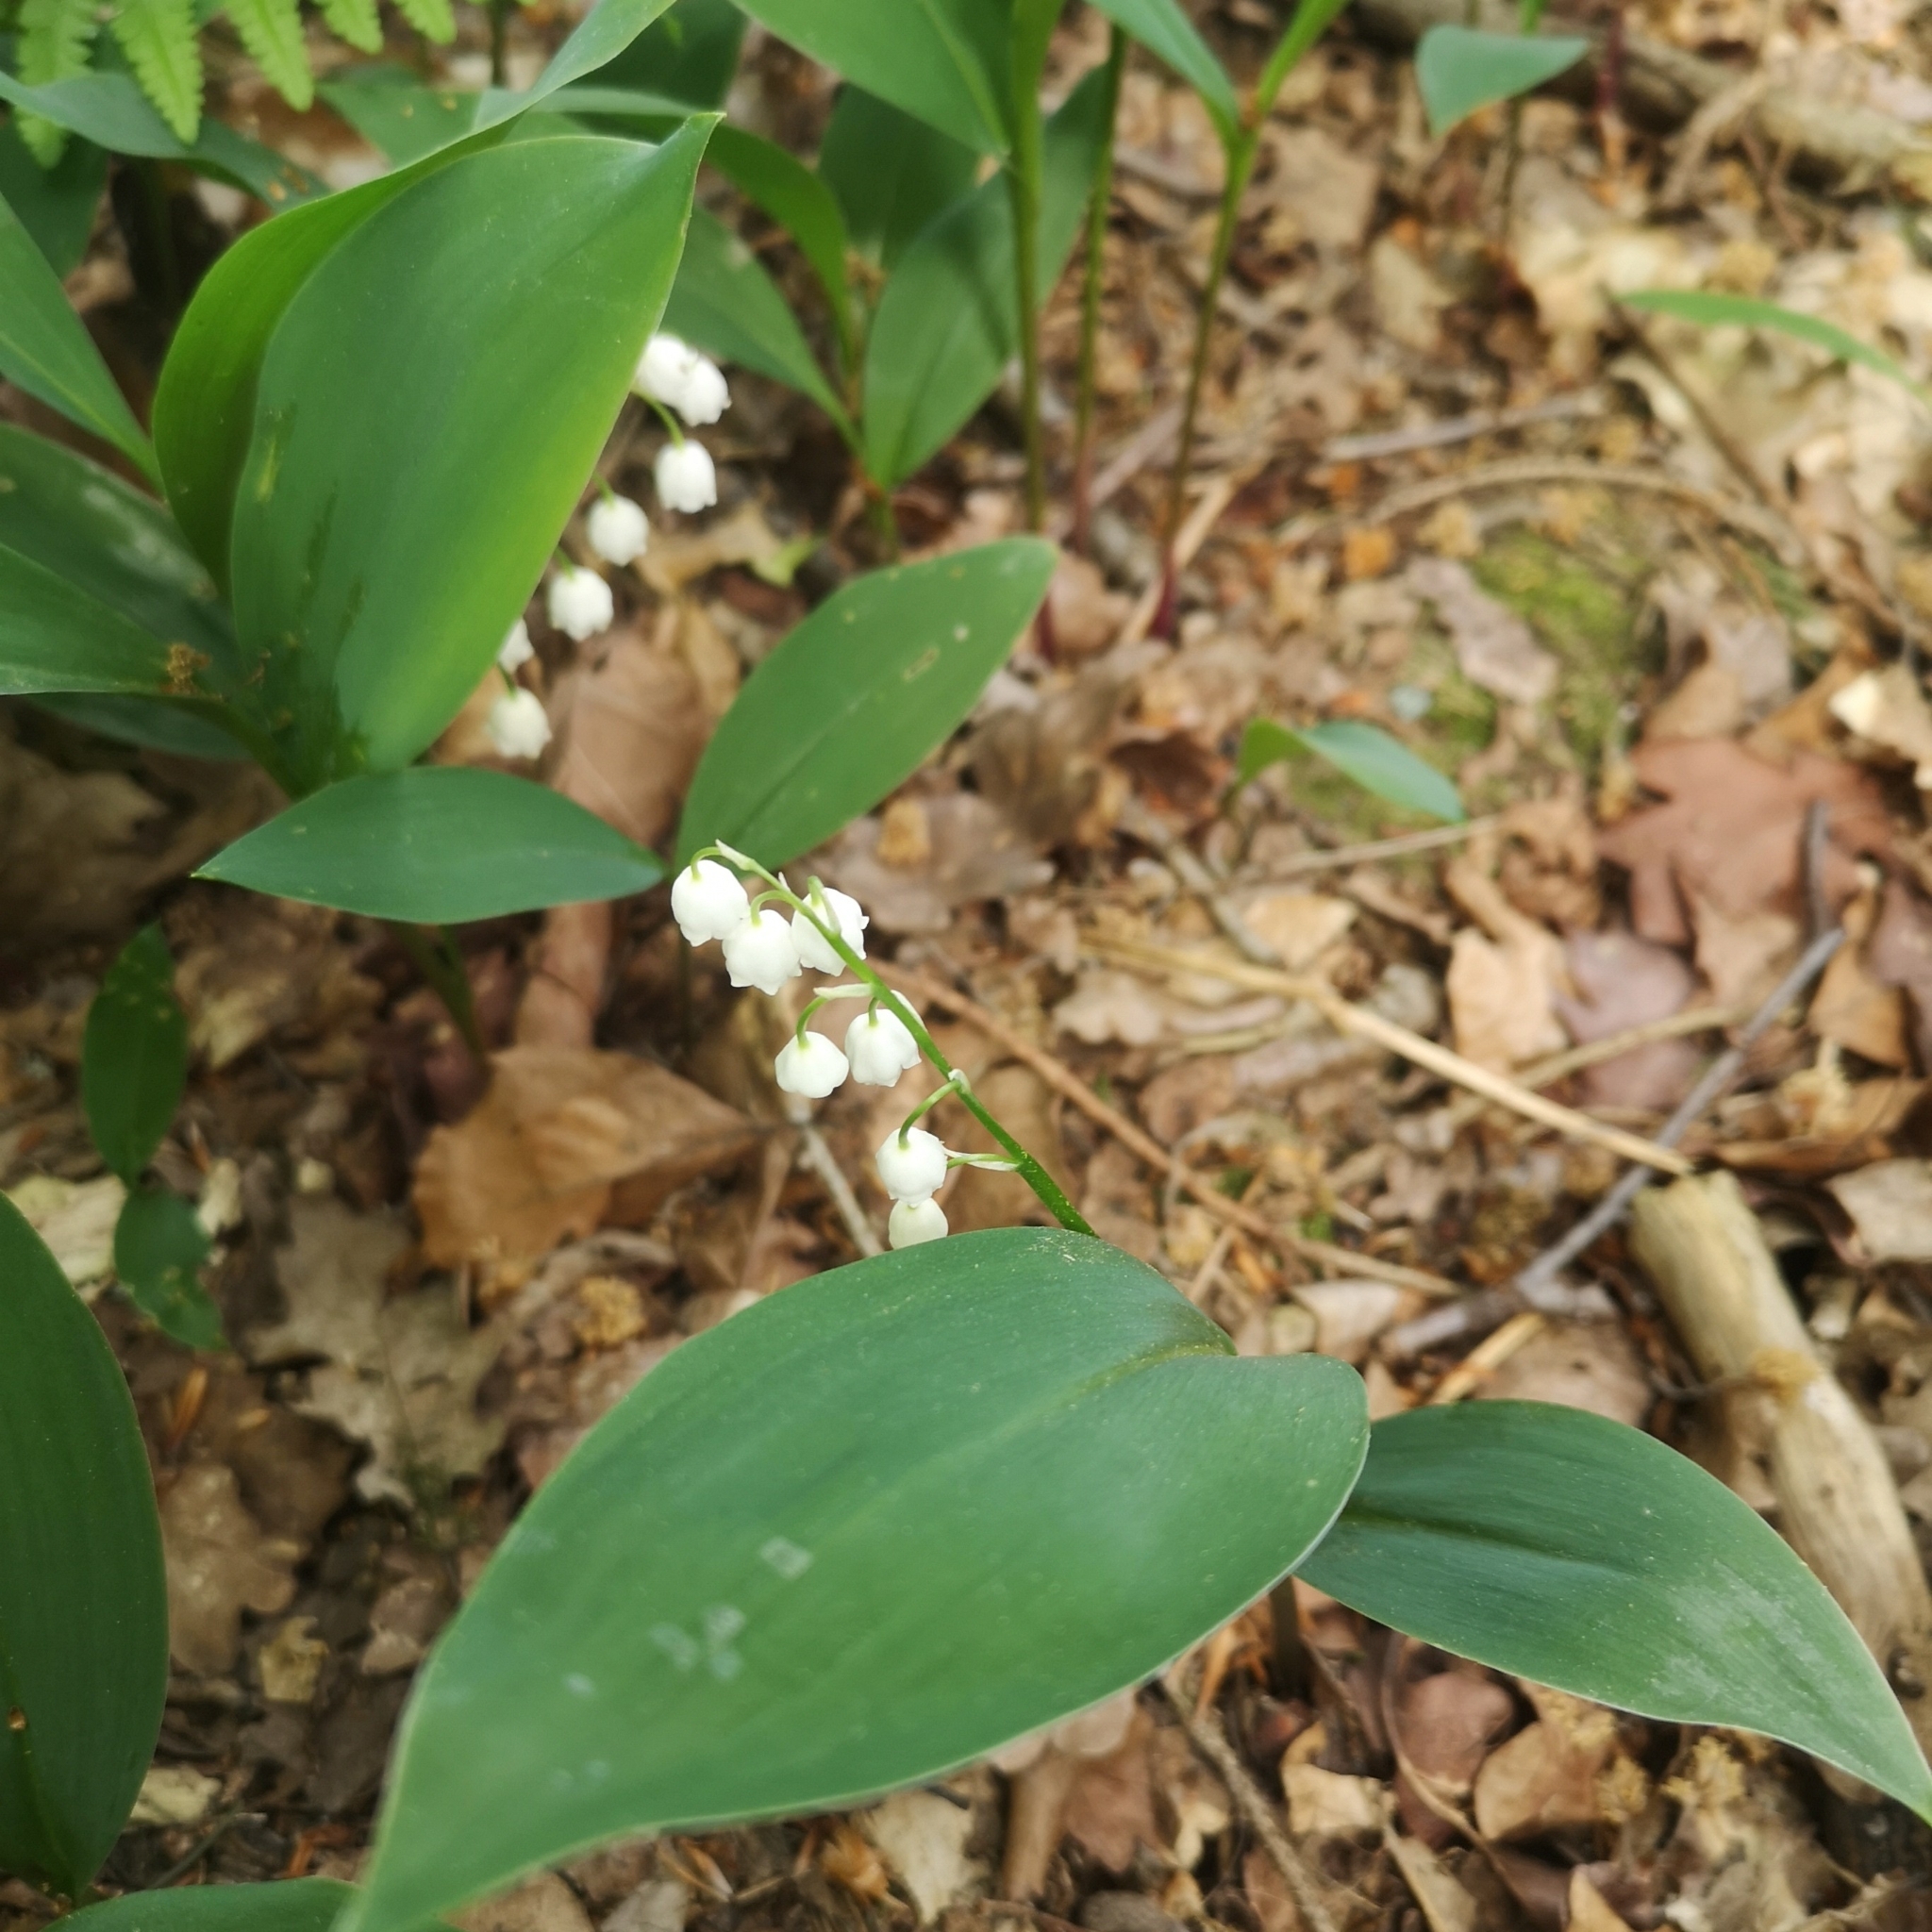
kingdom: Plantae
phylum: Tracheophyta
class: Liliopsida
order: Asparagales
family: Asparagaceae
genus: Convallaria
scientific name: Convallaria majalis
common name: Lily-of-the-valley
